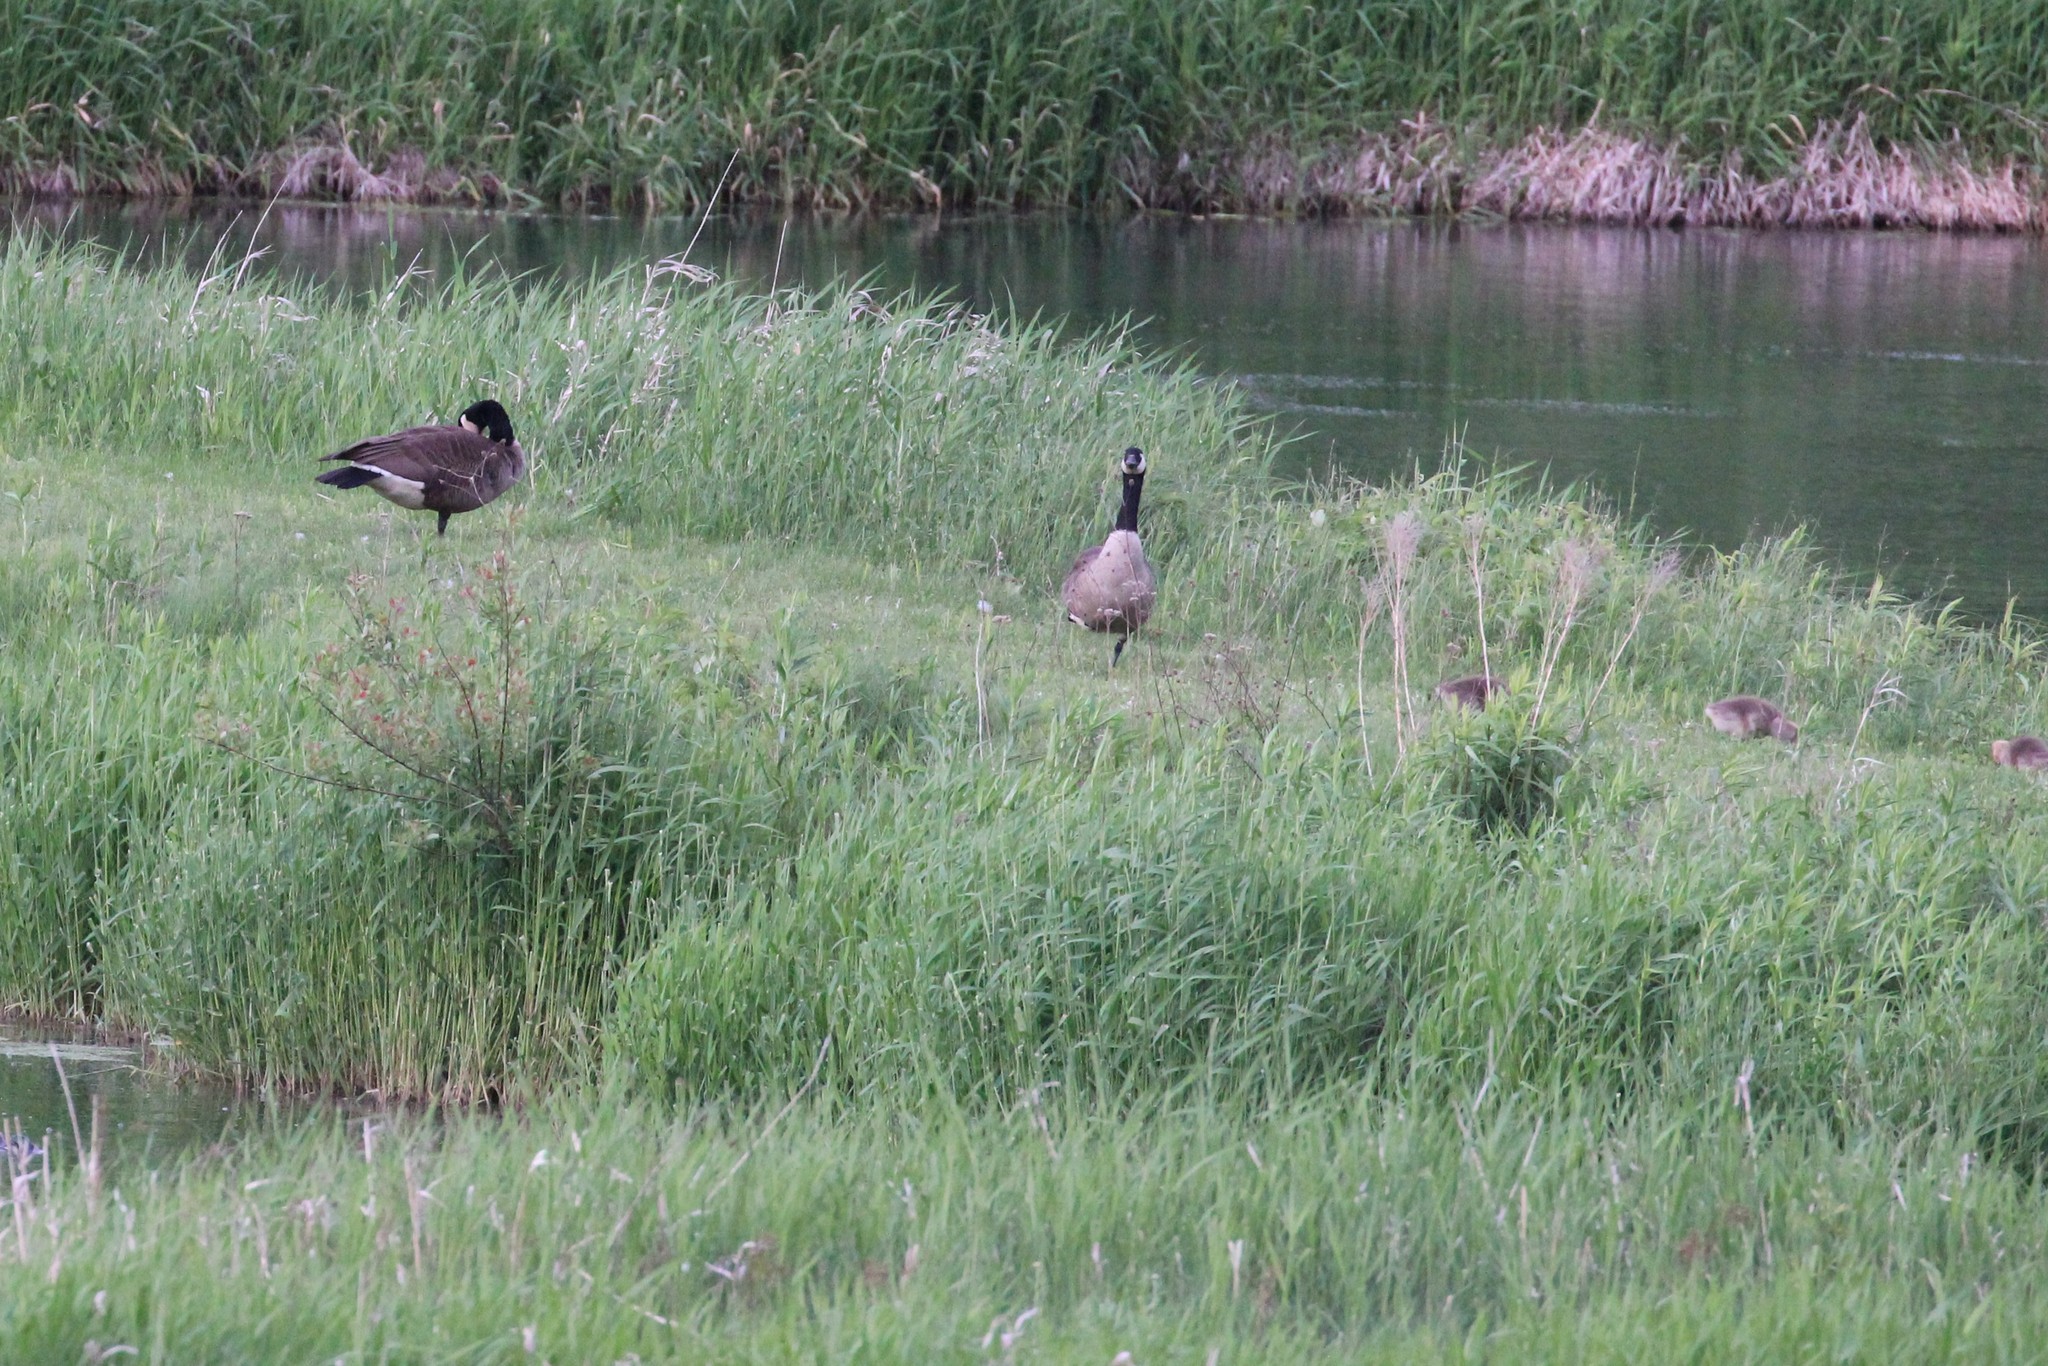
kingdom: Animalia
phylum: Chordata
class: Aves
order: Anseriformes
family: Anatidae
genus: Branta
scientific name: Branta canadensis
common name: Canada goose
